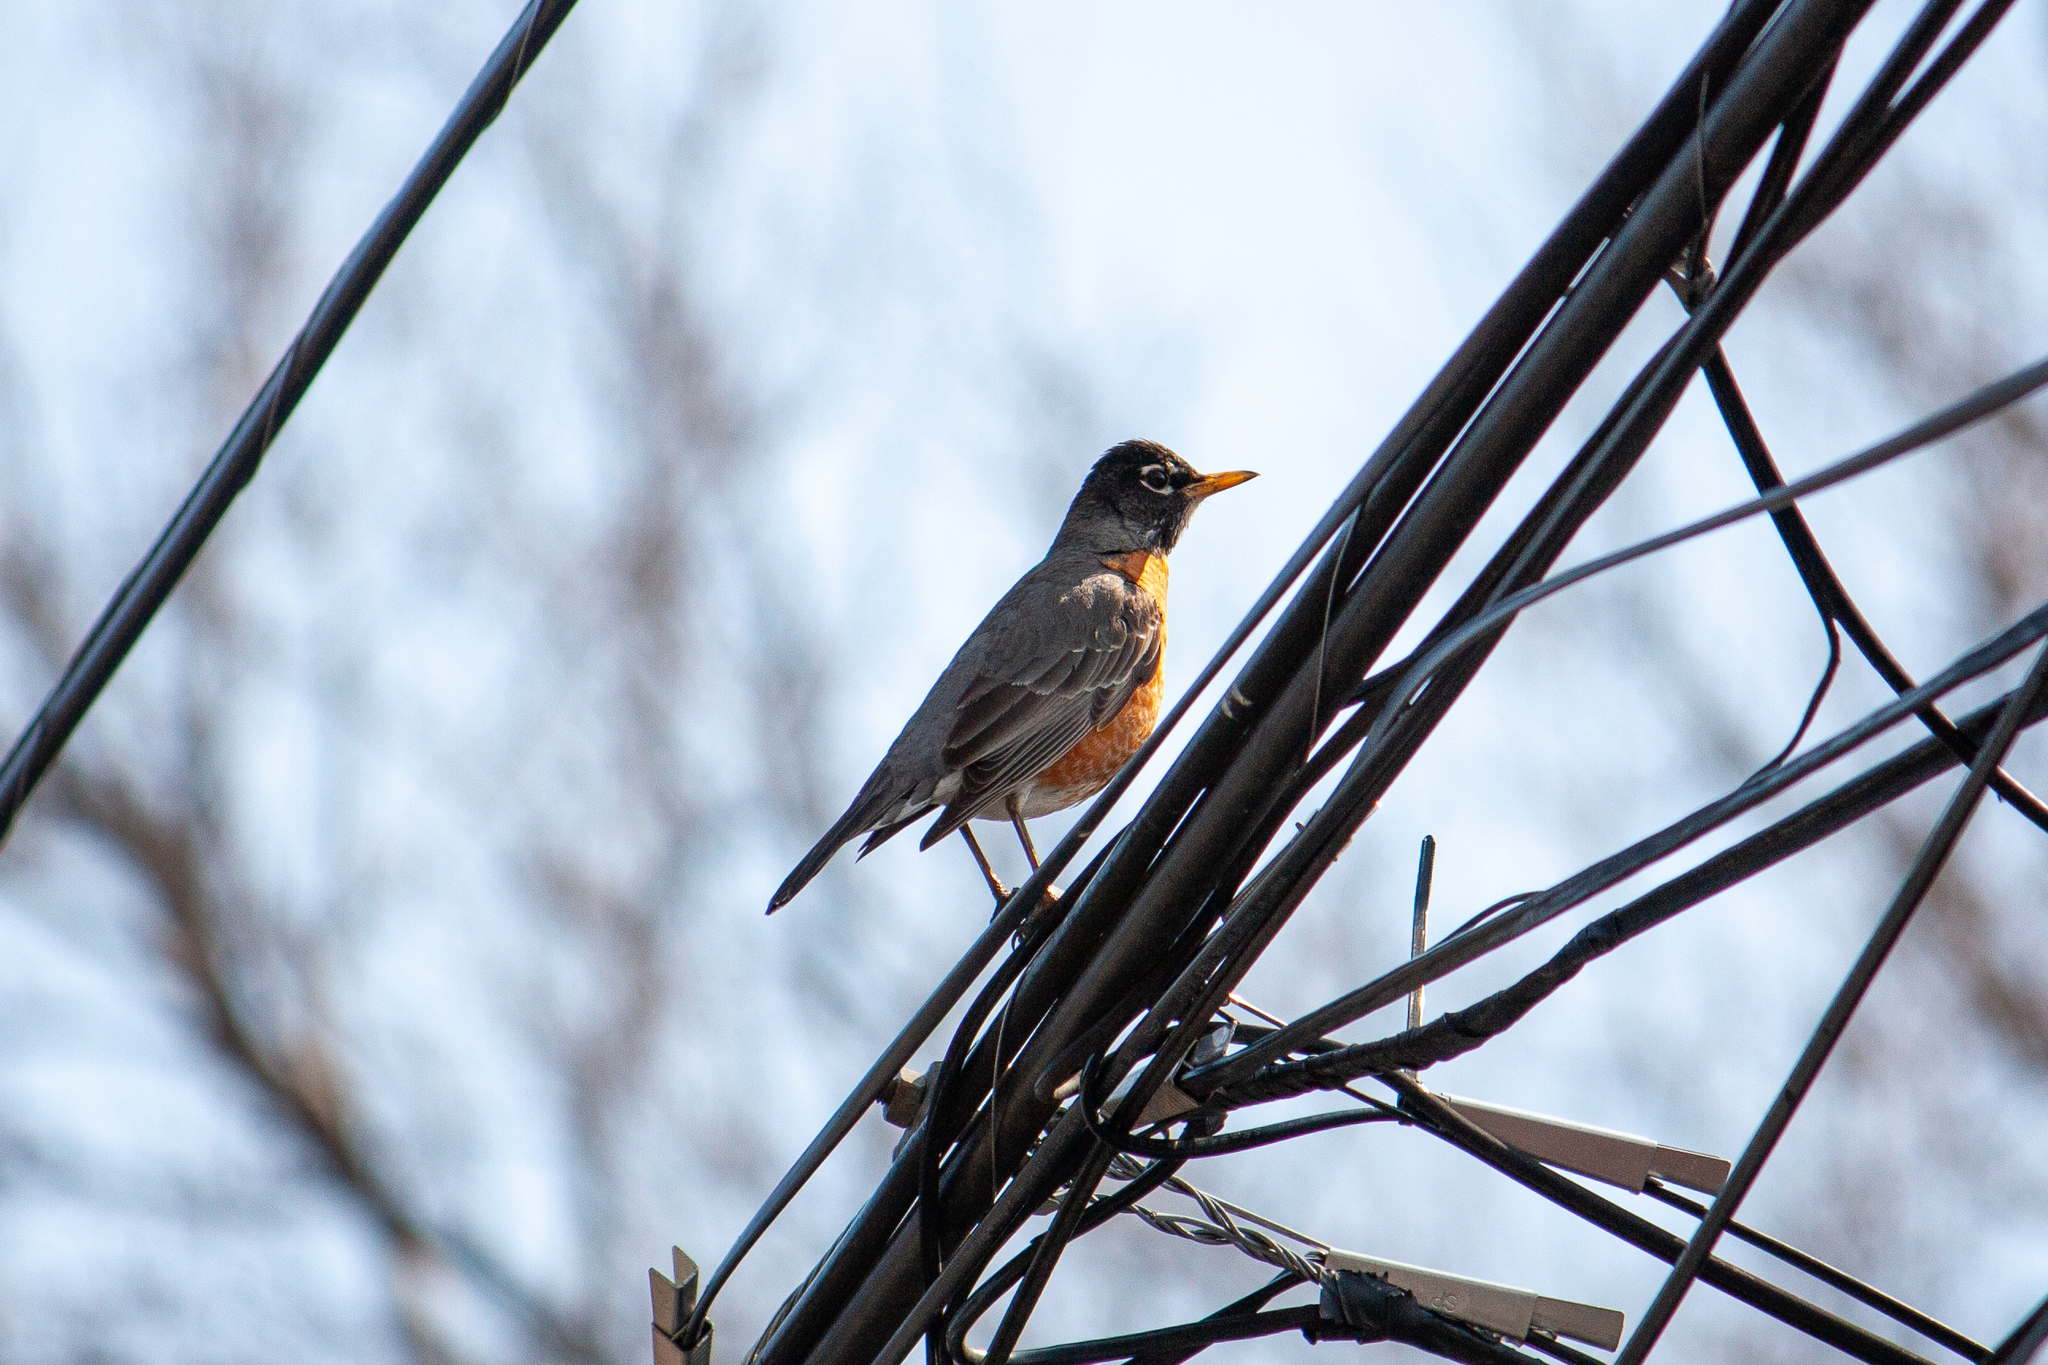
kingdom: Animalia
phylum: Chordata
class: Aves
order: Passeriformes
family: Turdidae
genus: Turdus
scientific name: Turdus migratorius
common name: American robin
